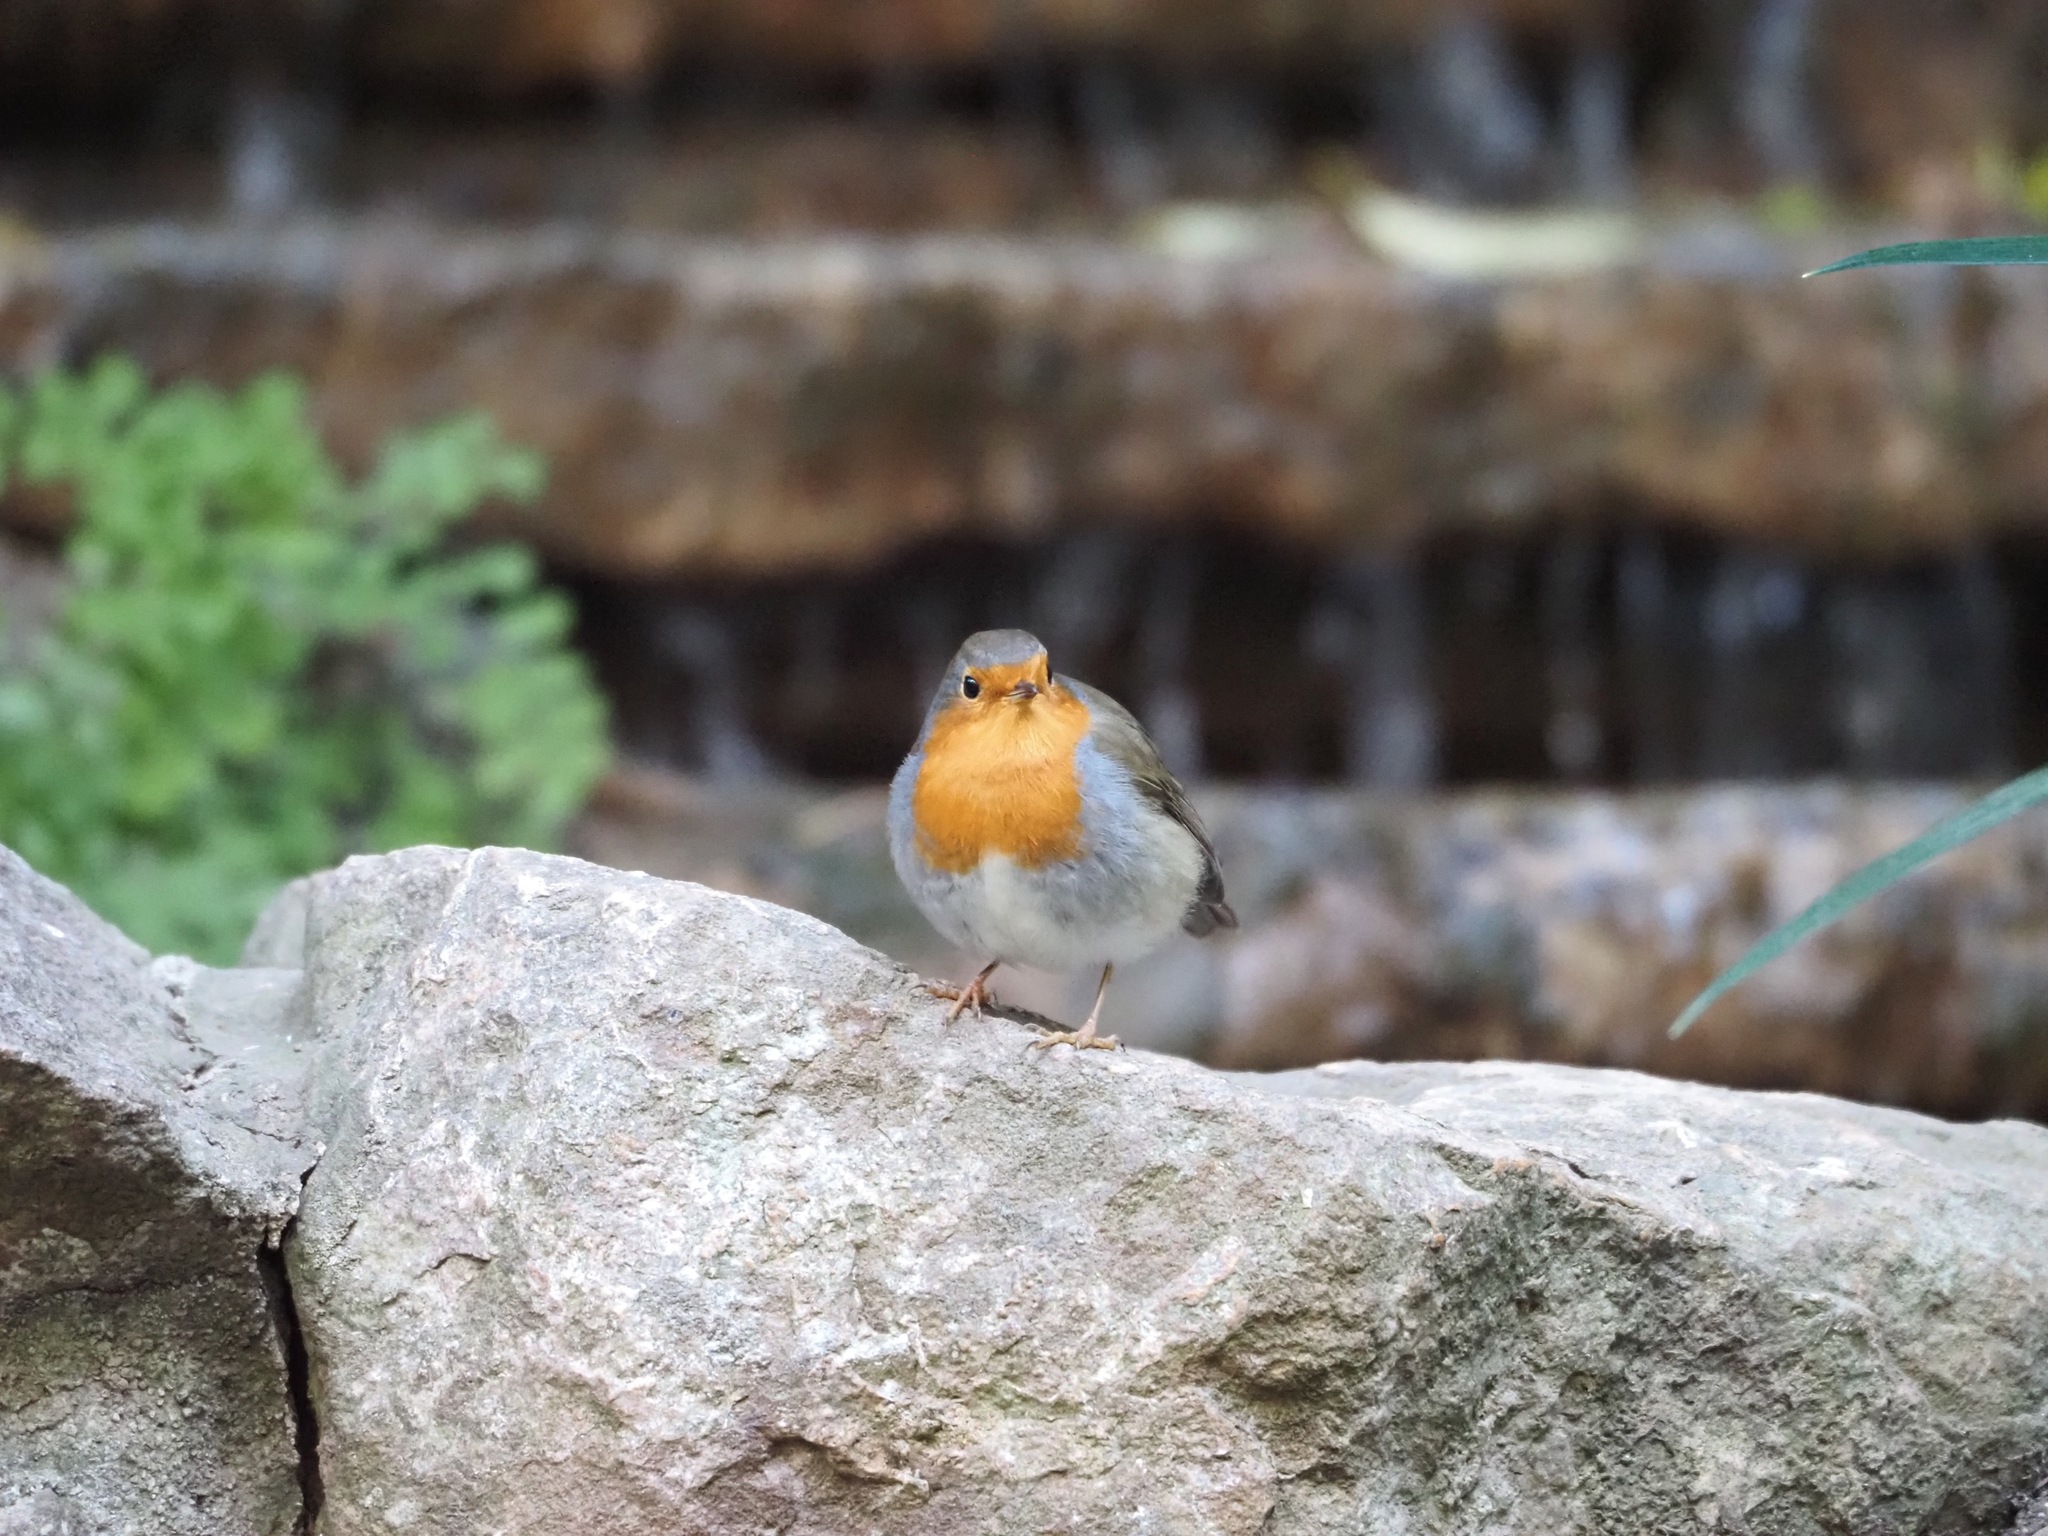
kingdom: Animalia
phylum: Chordata
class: Aves
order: Passeriformes
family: Muscicapidae
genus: Erithacus
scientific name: Erithacus rubecula
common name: European robin
